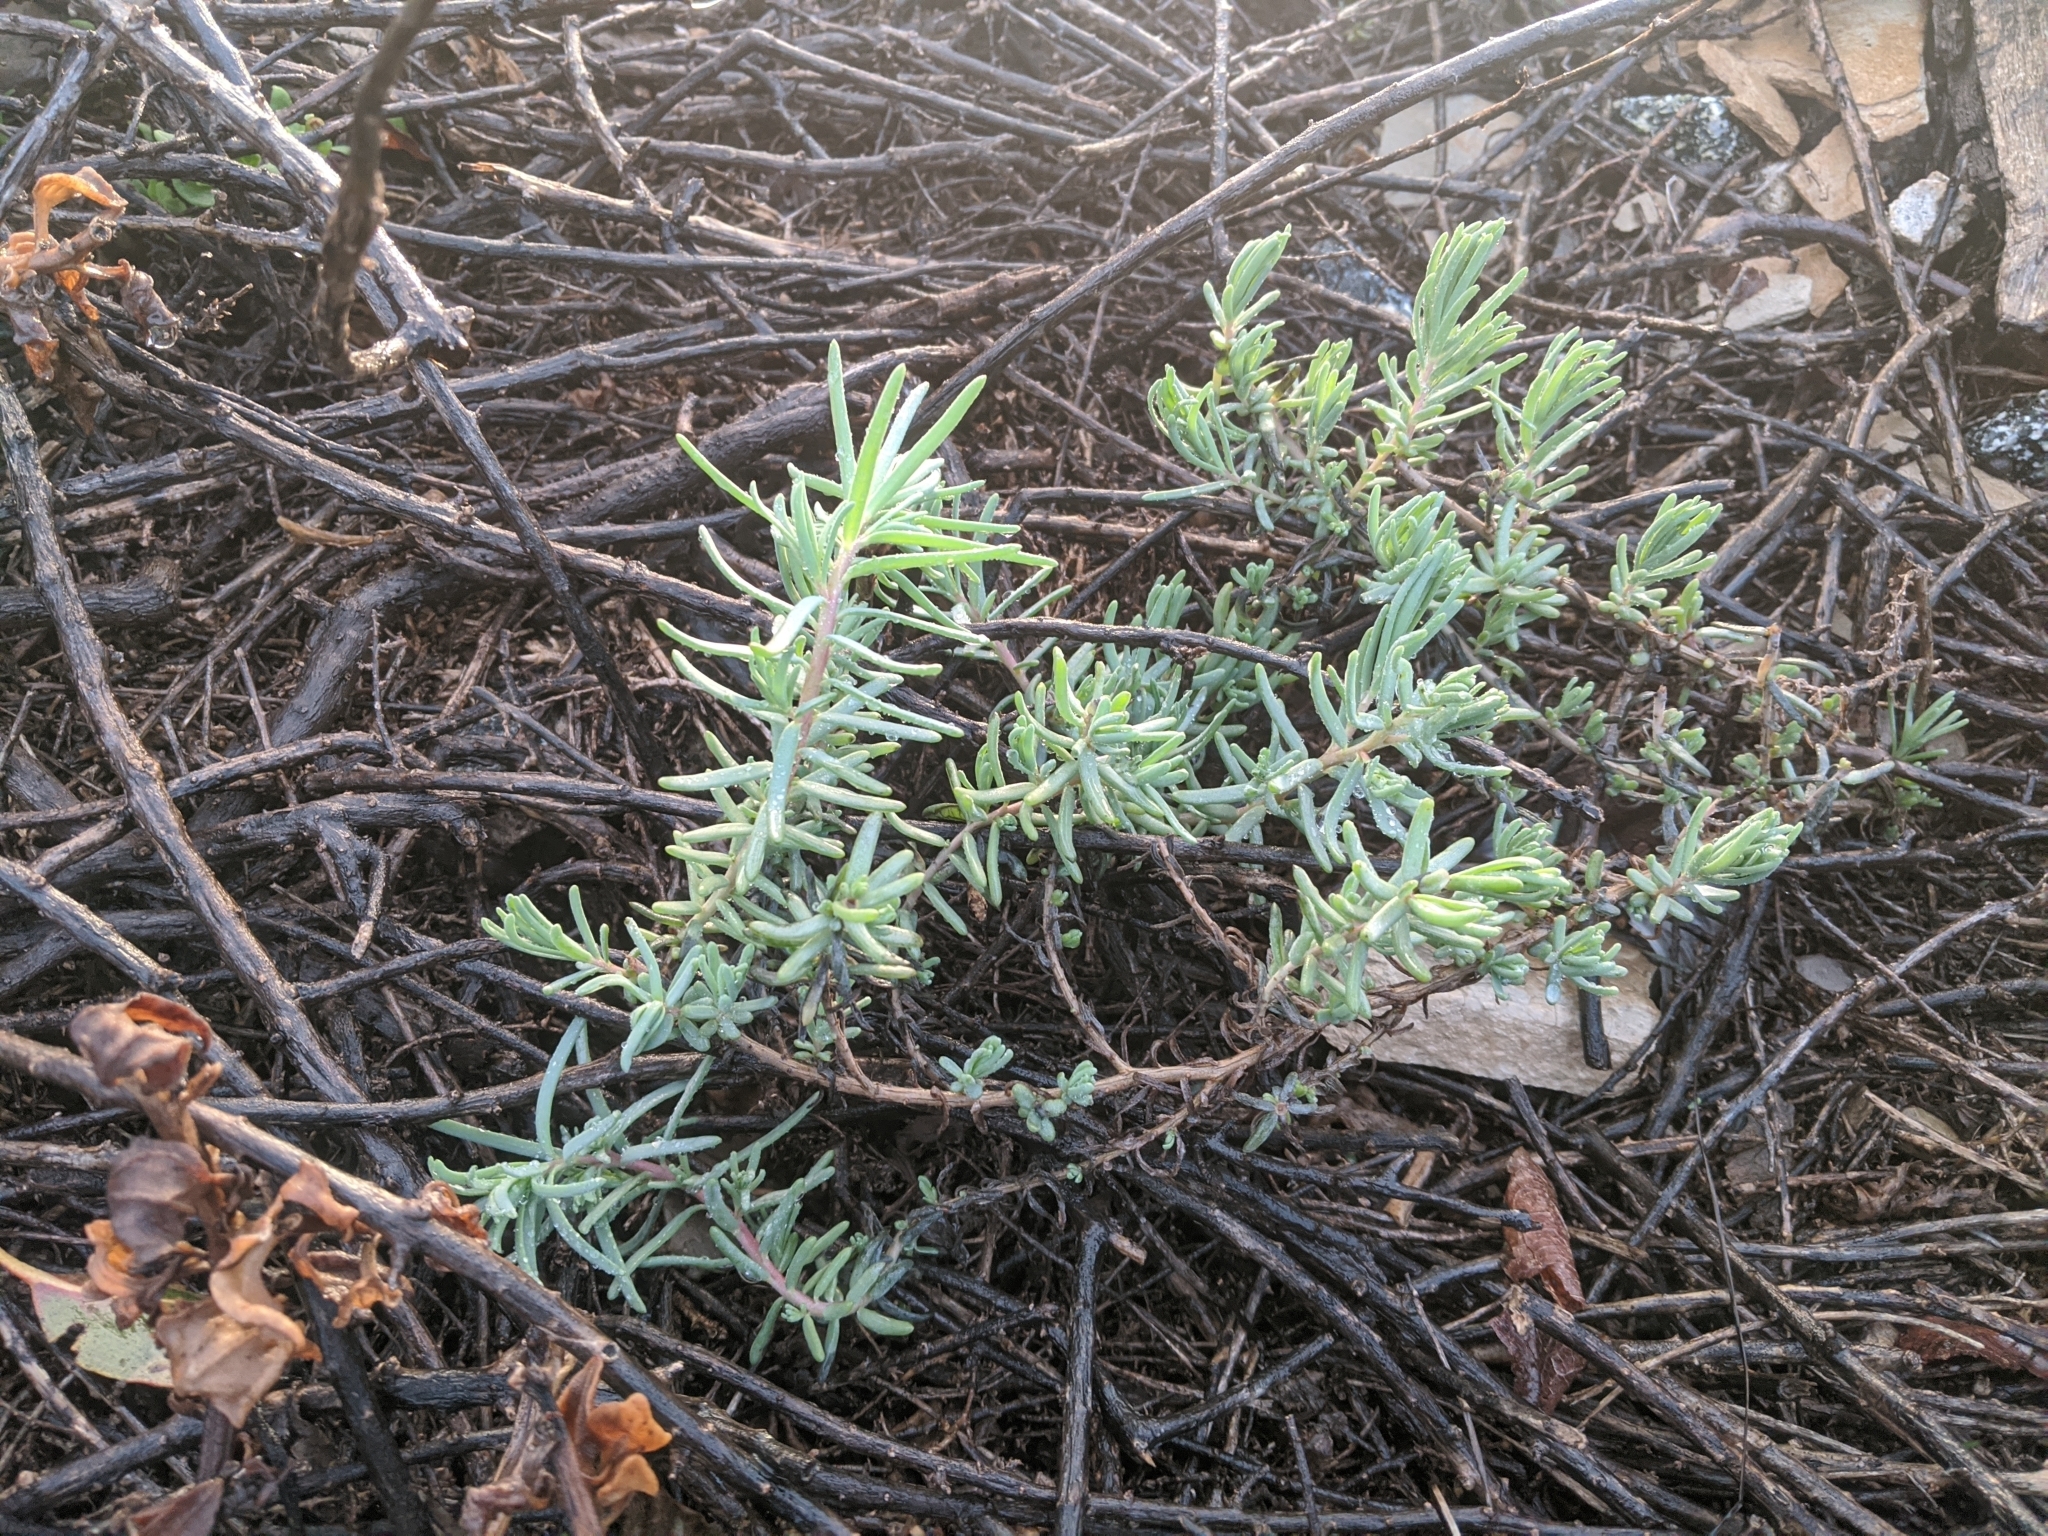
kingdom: Plantae
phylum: Tracheophyta
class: Magnoliopsida
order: Caryophyllales
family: Amaranthaceae
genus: Suaeda
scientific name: Suaeda taxifolia
